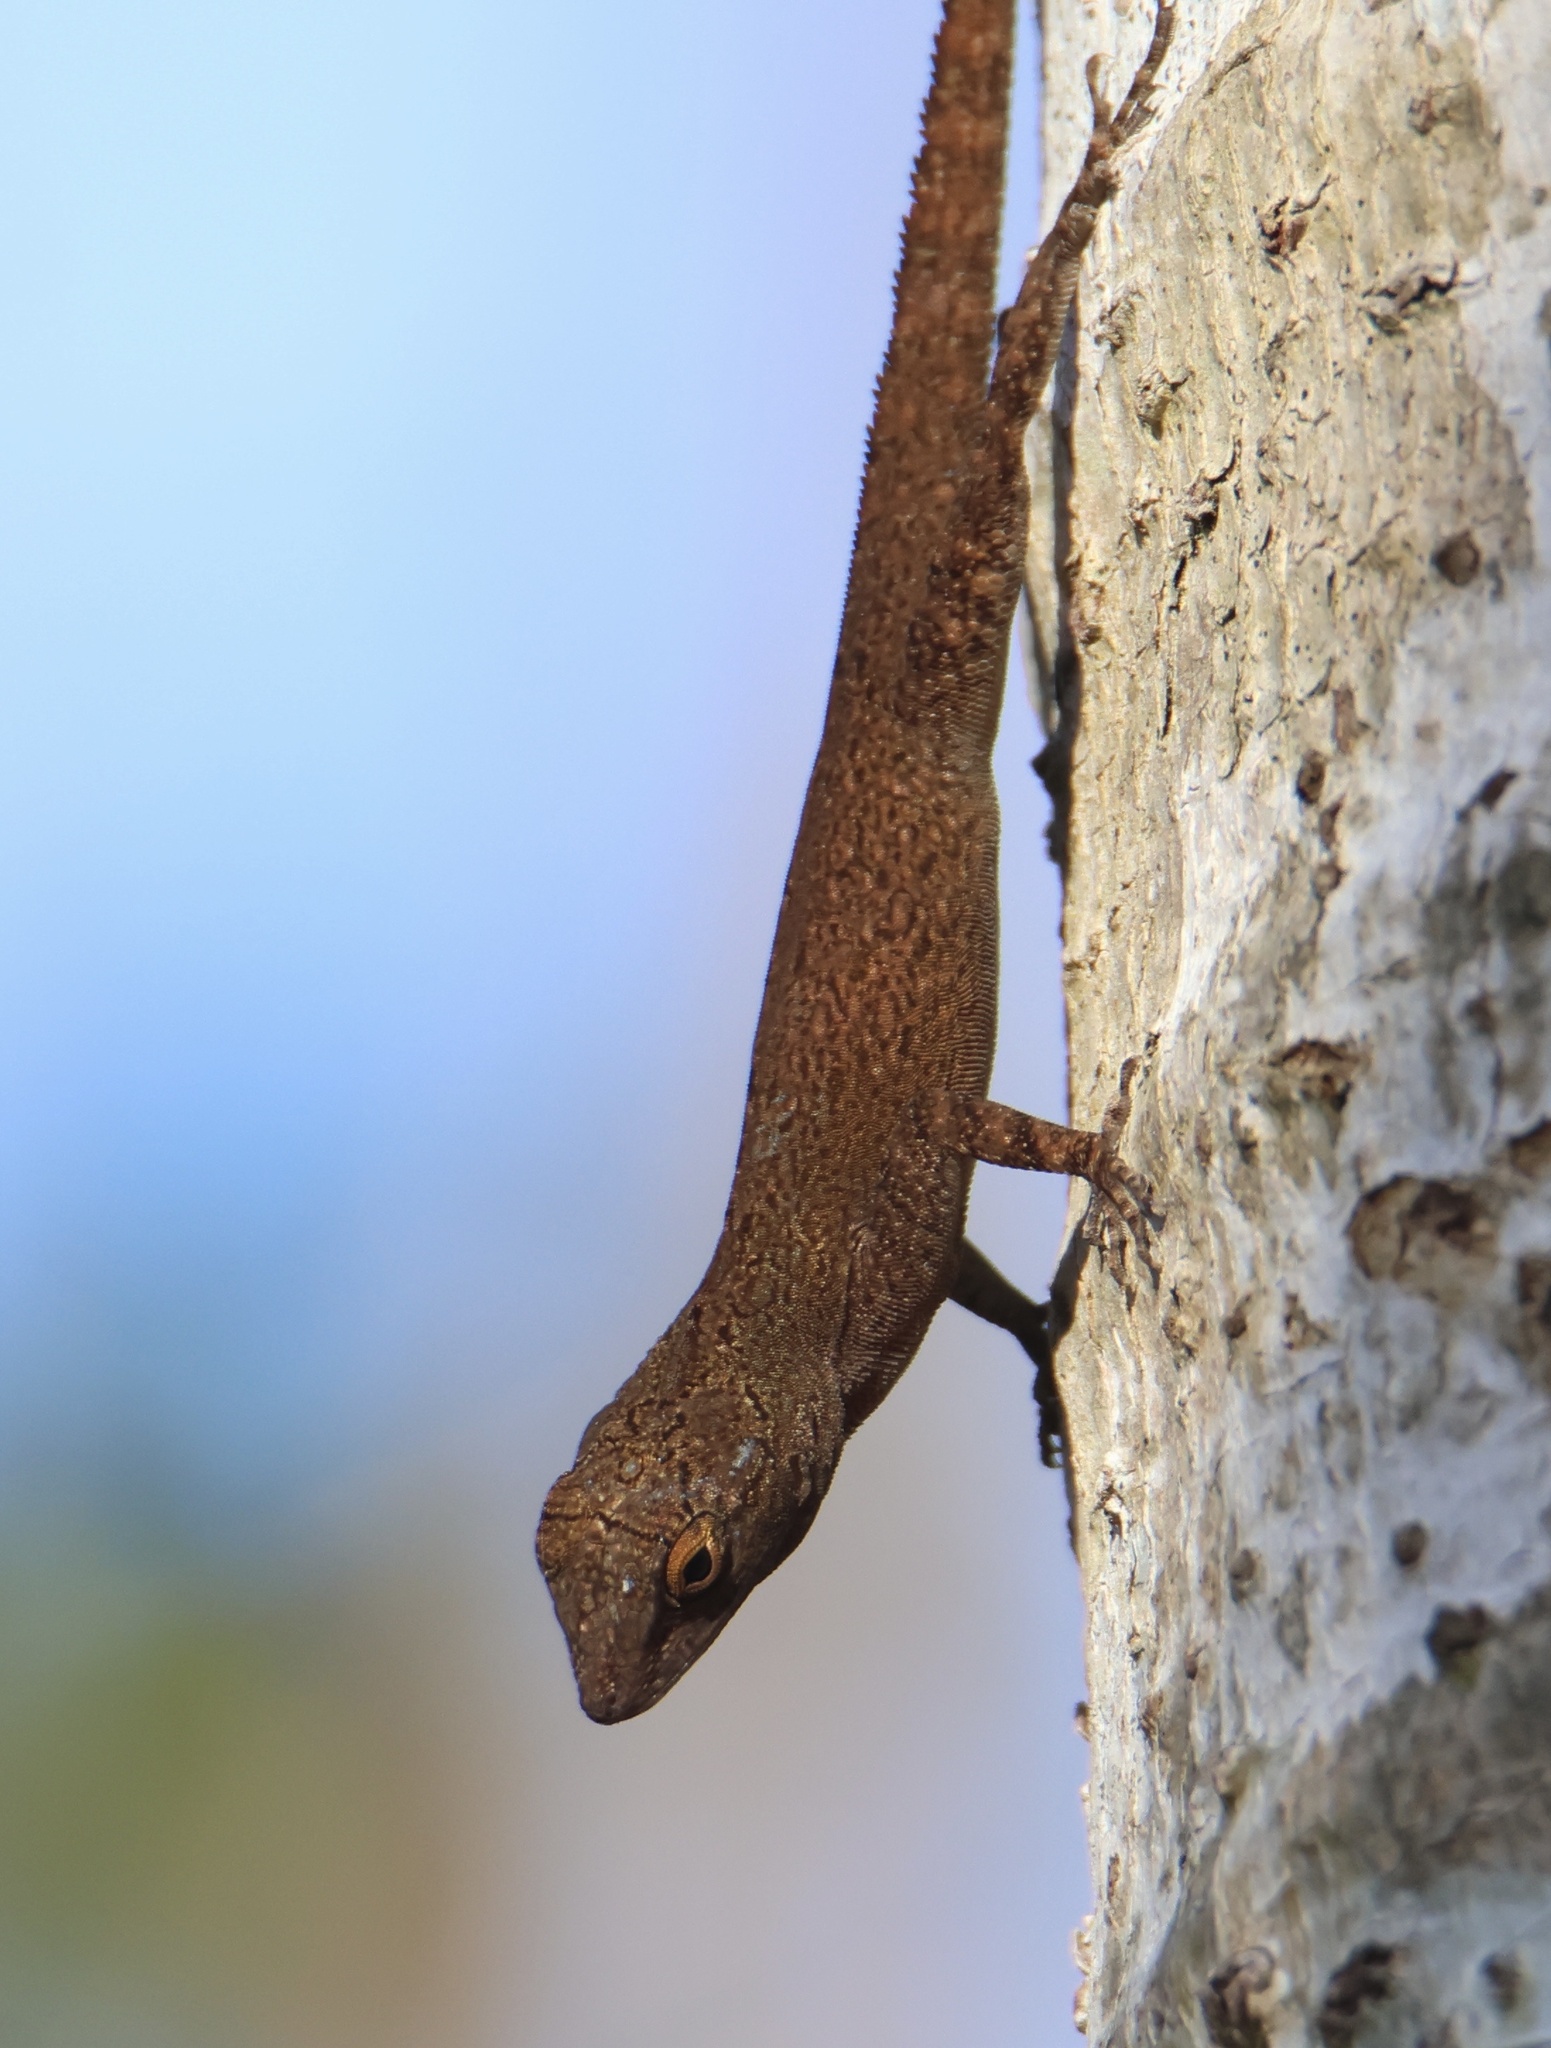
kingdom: Animalia
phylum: Chordata
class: Squamata
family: Dactyloidae
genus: Anolis
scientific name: Anolis distichus
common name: Bark anole
